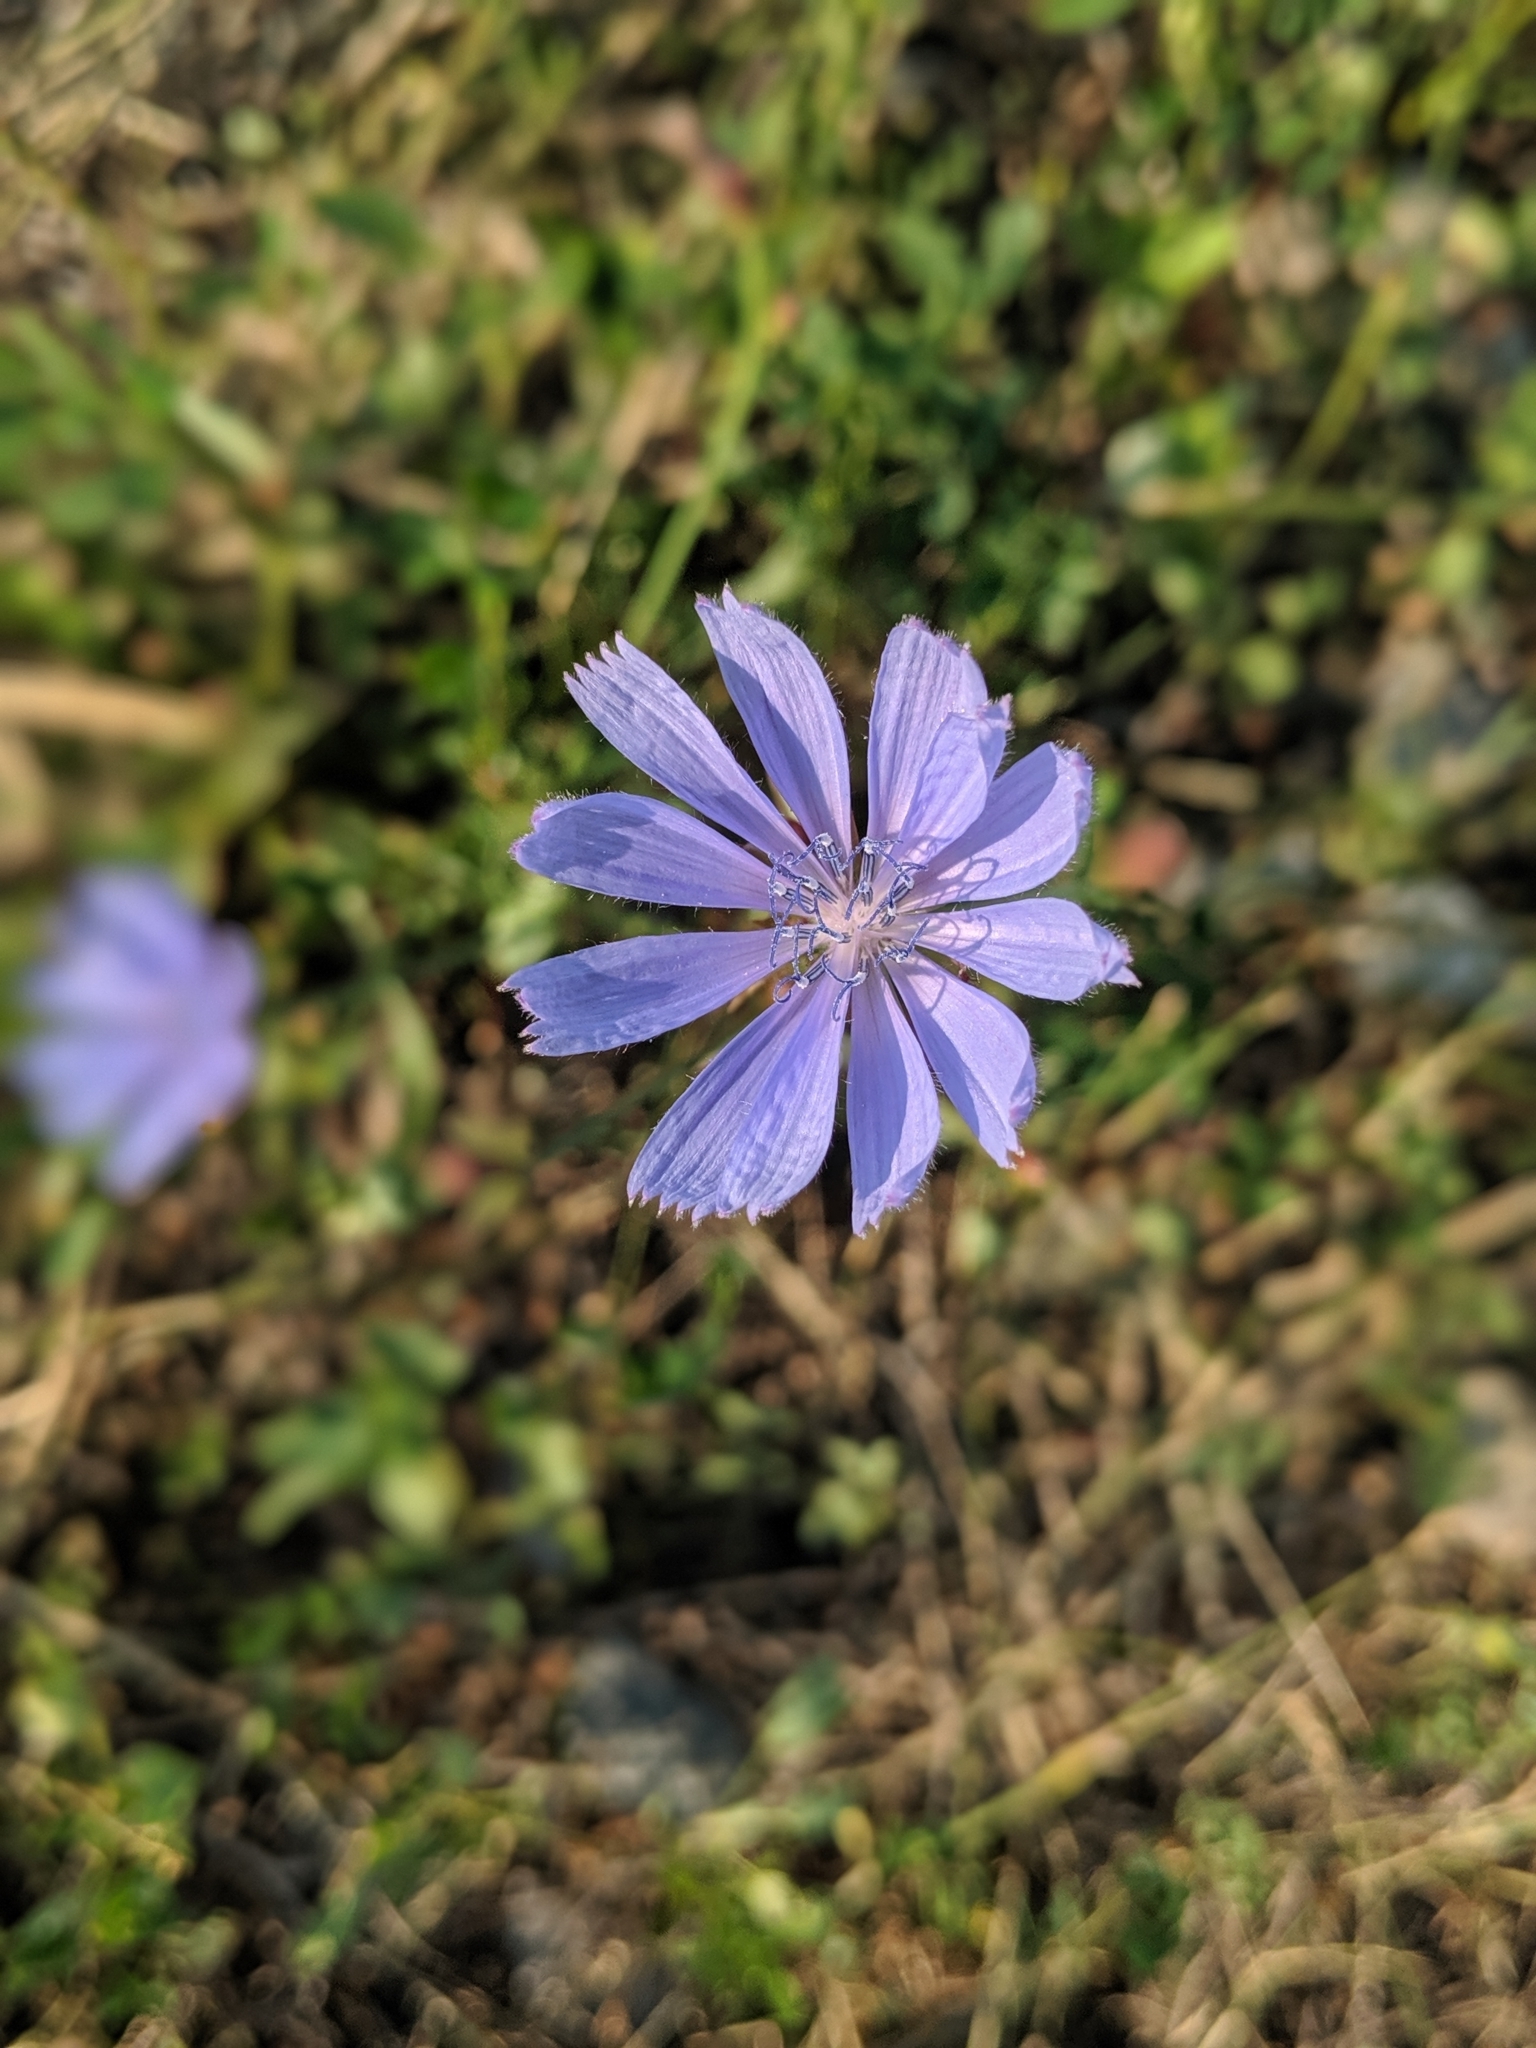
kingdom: Plantae
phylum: Tracheophyta
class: Magnoliopsida
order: Asterales
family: Asteraceae
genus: Cichorium
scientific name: Cichorium intybus
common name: Chicory
